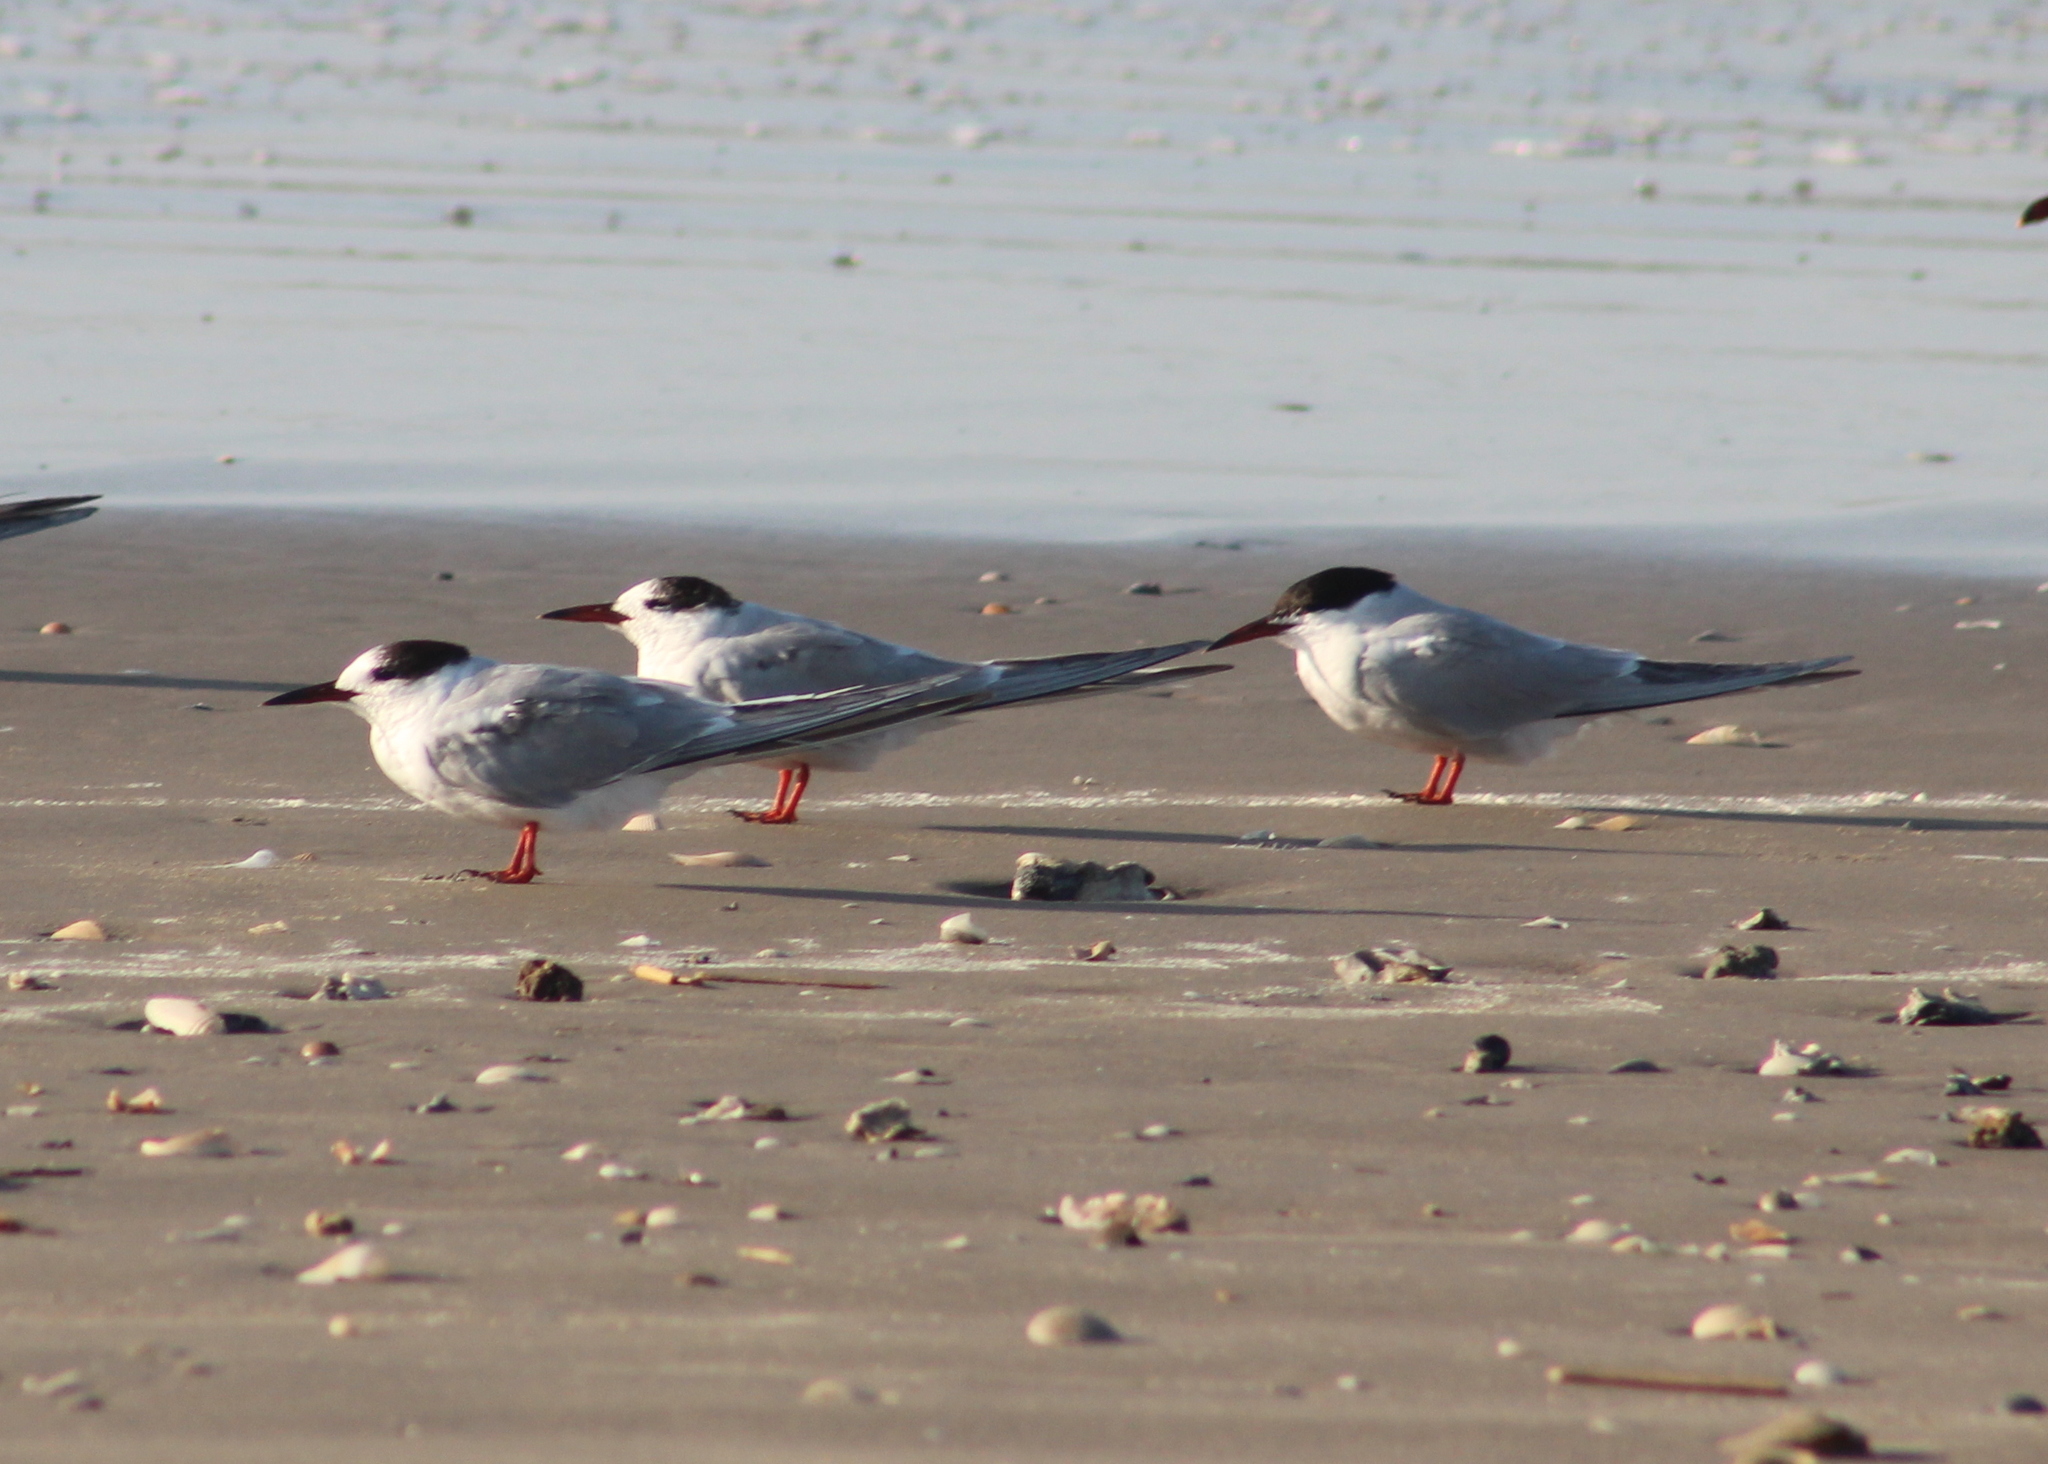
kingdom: Animalia
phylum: Chordata
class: Aves
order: Charadriiformes
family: Laridae
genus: Sterna
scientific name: Sterna forsteri
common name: Forster's tern
